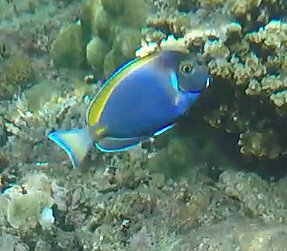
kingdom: Animalia
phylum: Chordata
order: Perciformes
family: Acanthuridae
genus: Acanthurus
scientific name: Acanthurus
